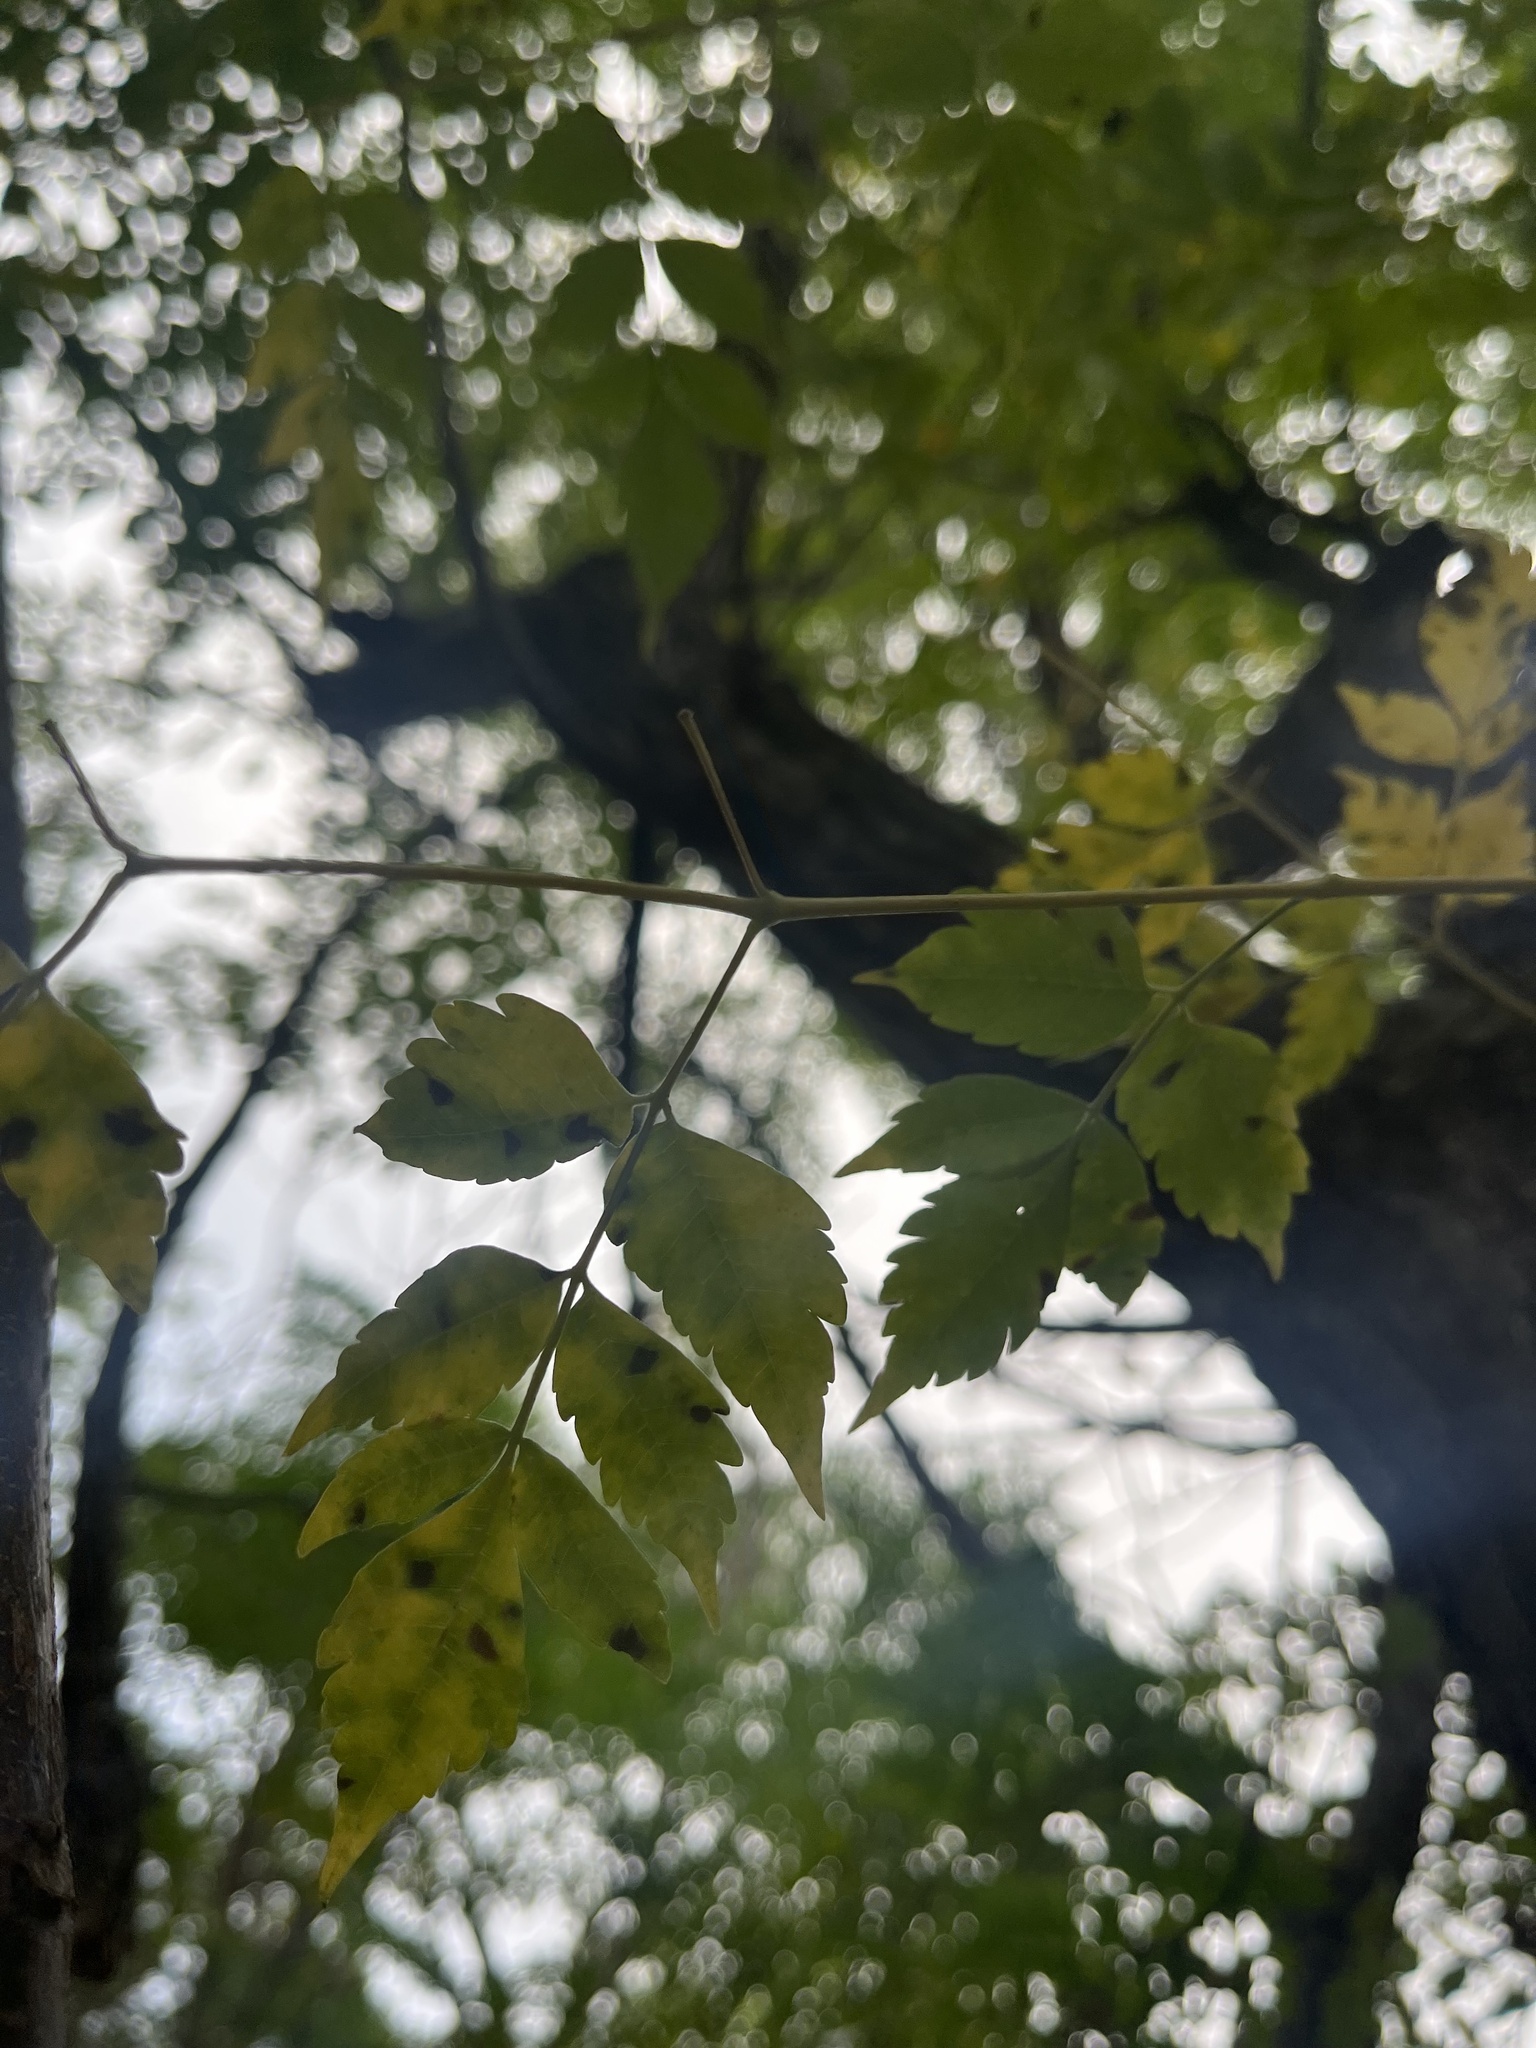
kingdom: Plantae
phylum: Tracheophyta
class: Magnoliopsida
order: Sapindales
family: Meliaceae
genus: Melia
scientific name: Melia azedarach
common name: Chinaberrytree
